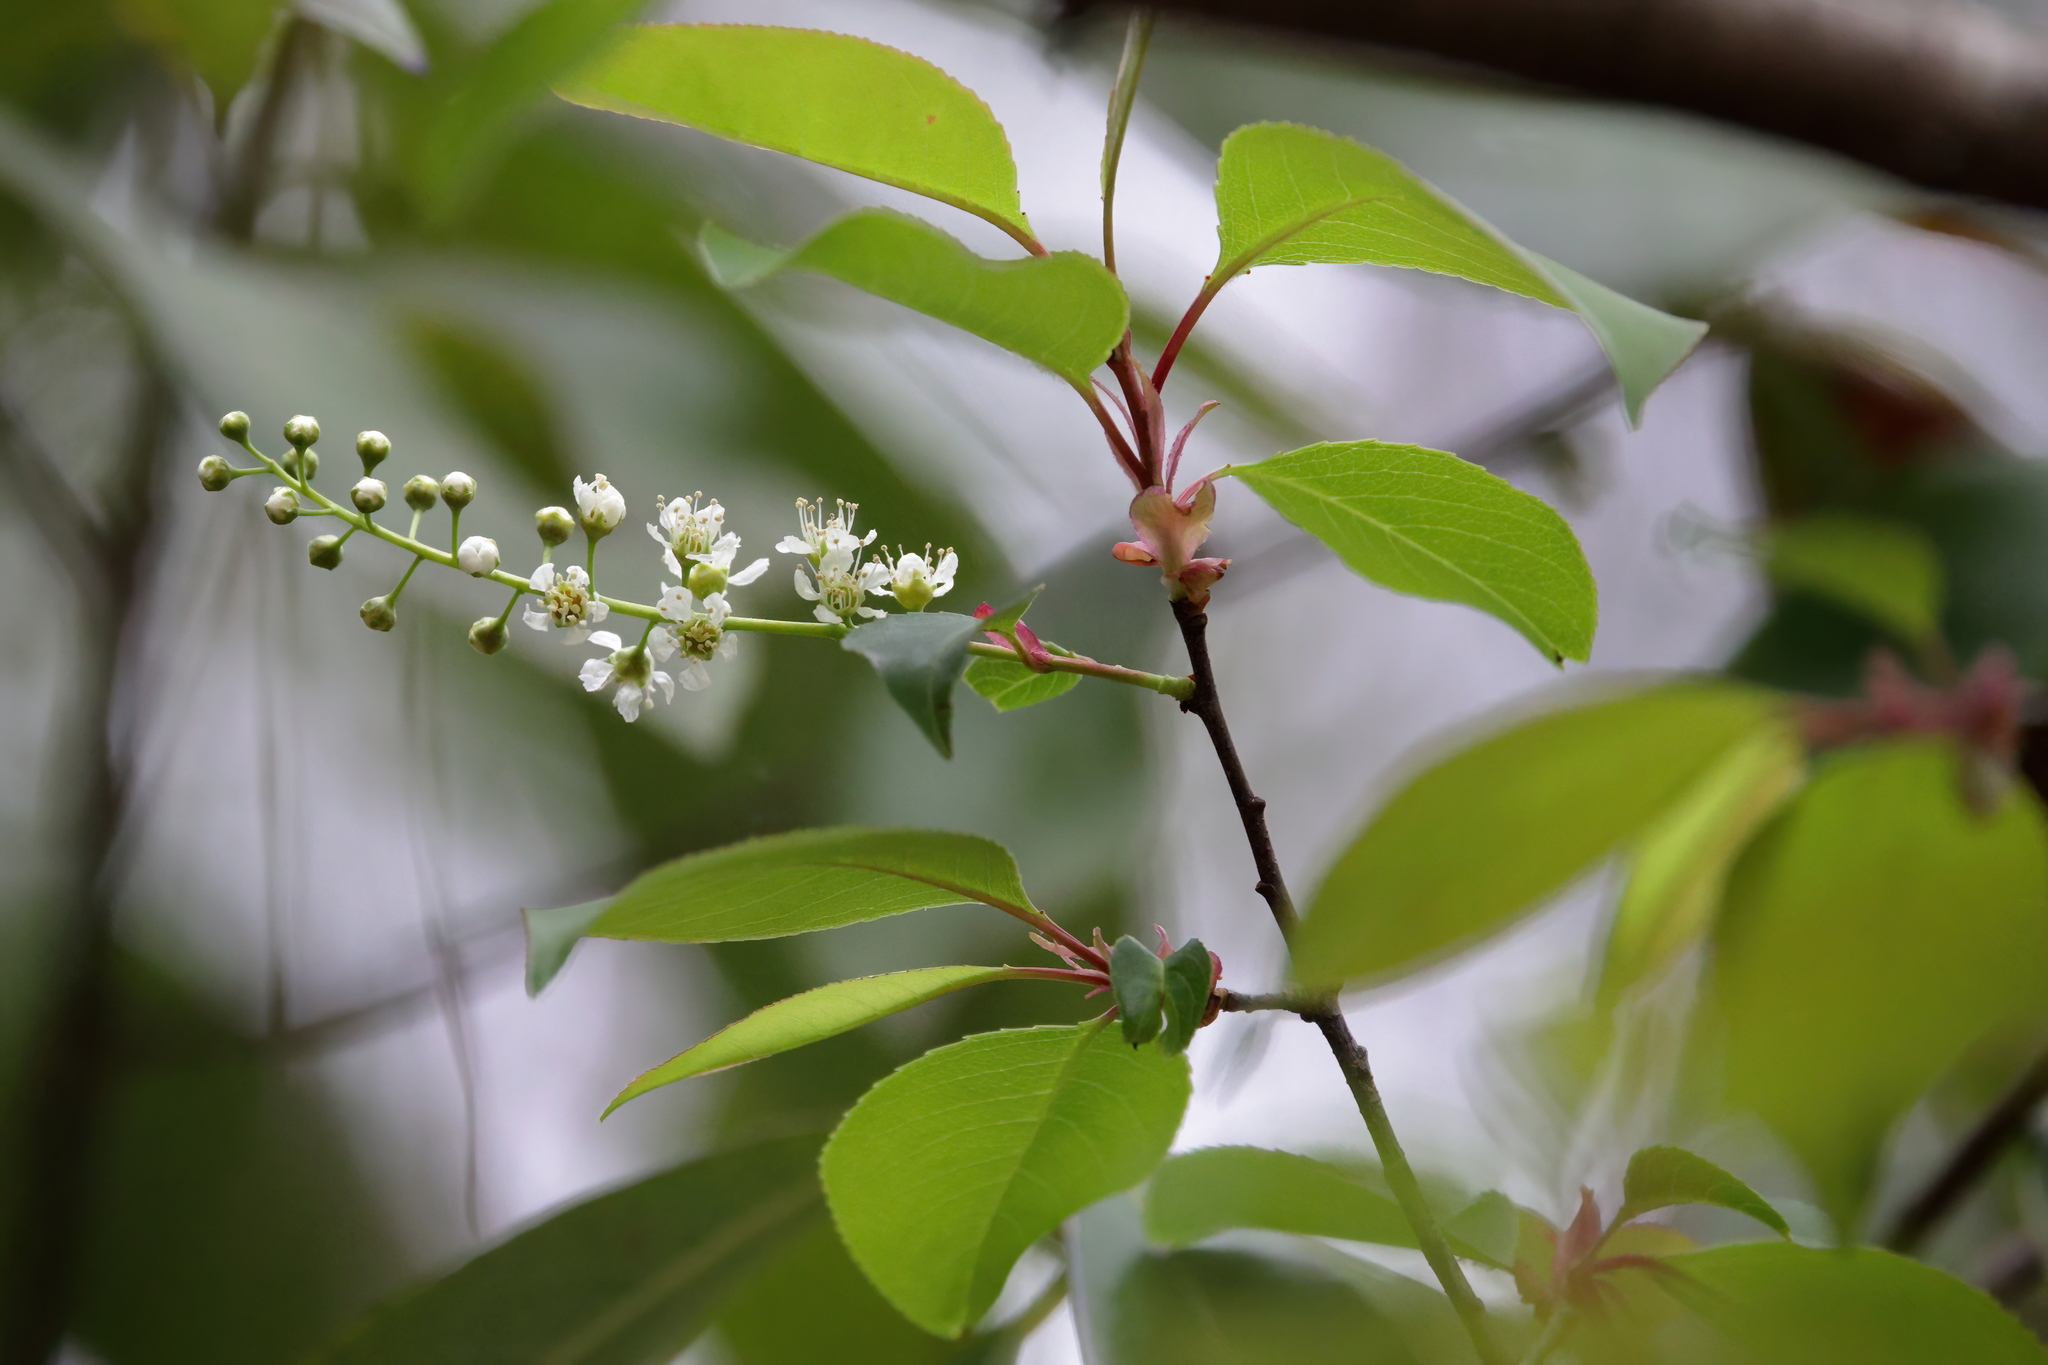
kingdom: Plantae
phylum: Tracheophyta
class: Magnoliopsida
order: Rosales
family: Rosaceae
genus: Prunus
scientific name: Prunus serotina
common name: Black cherry
